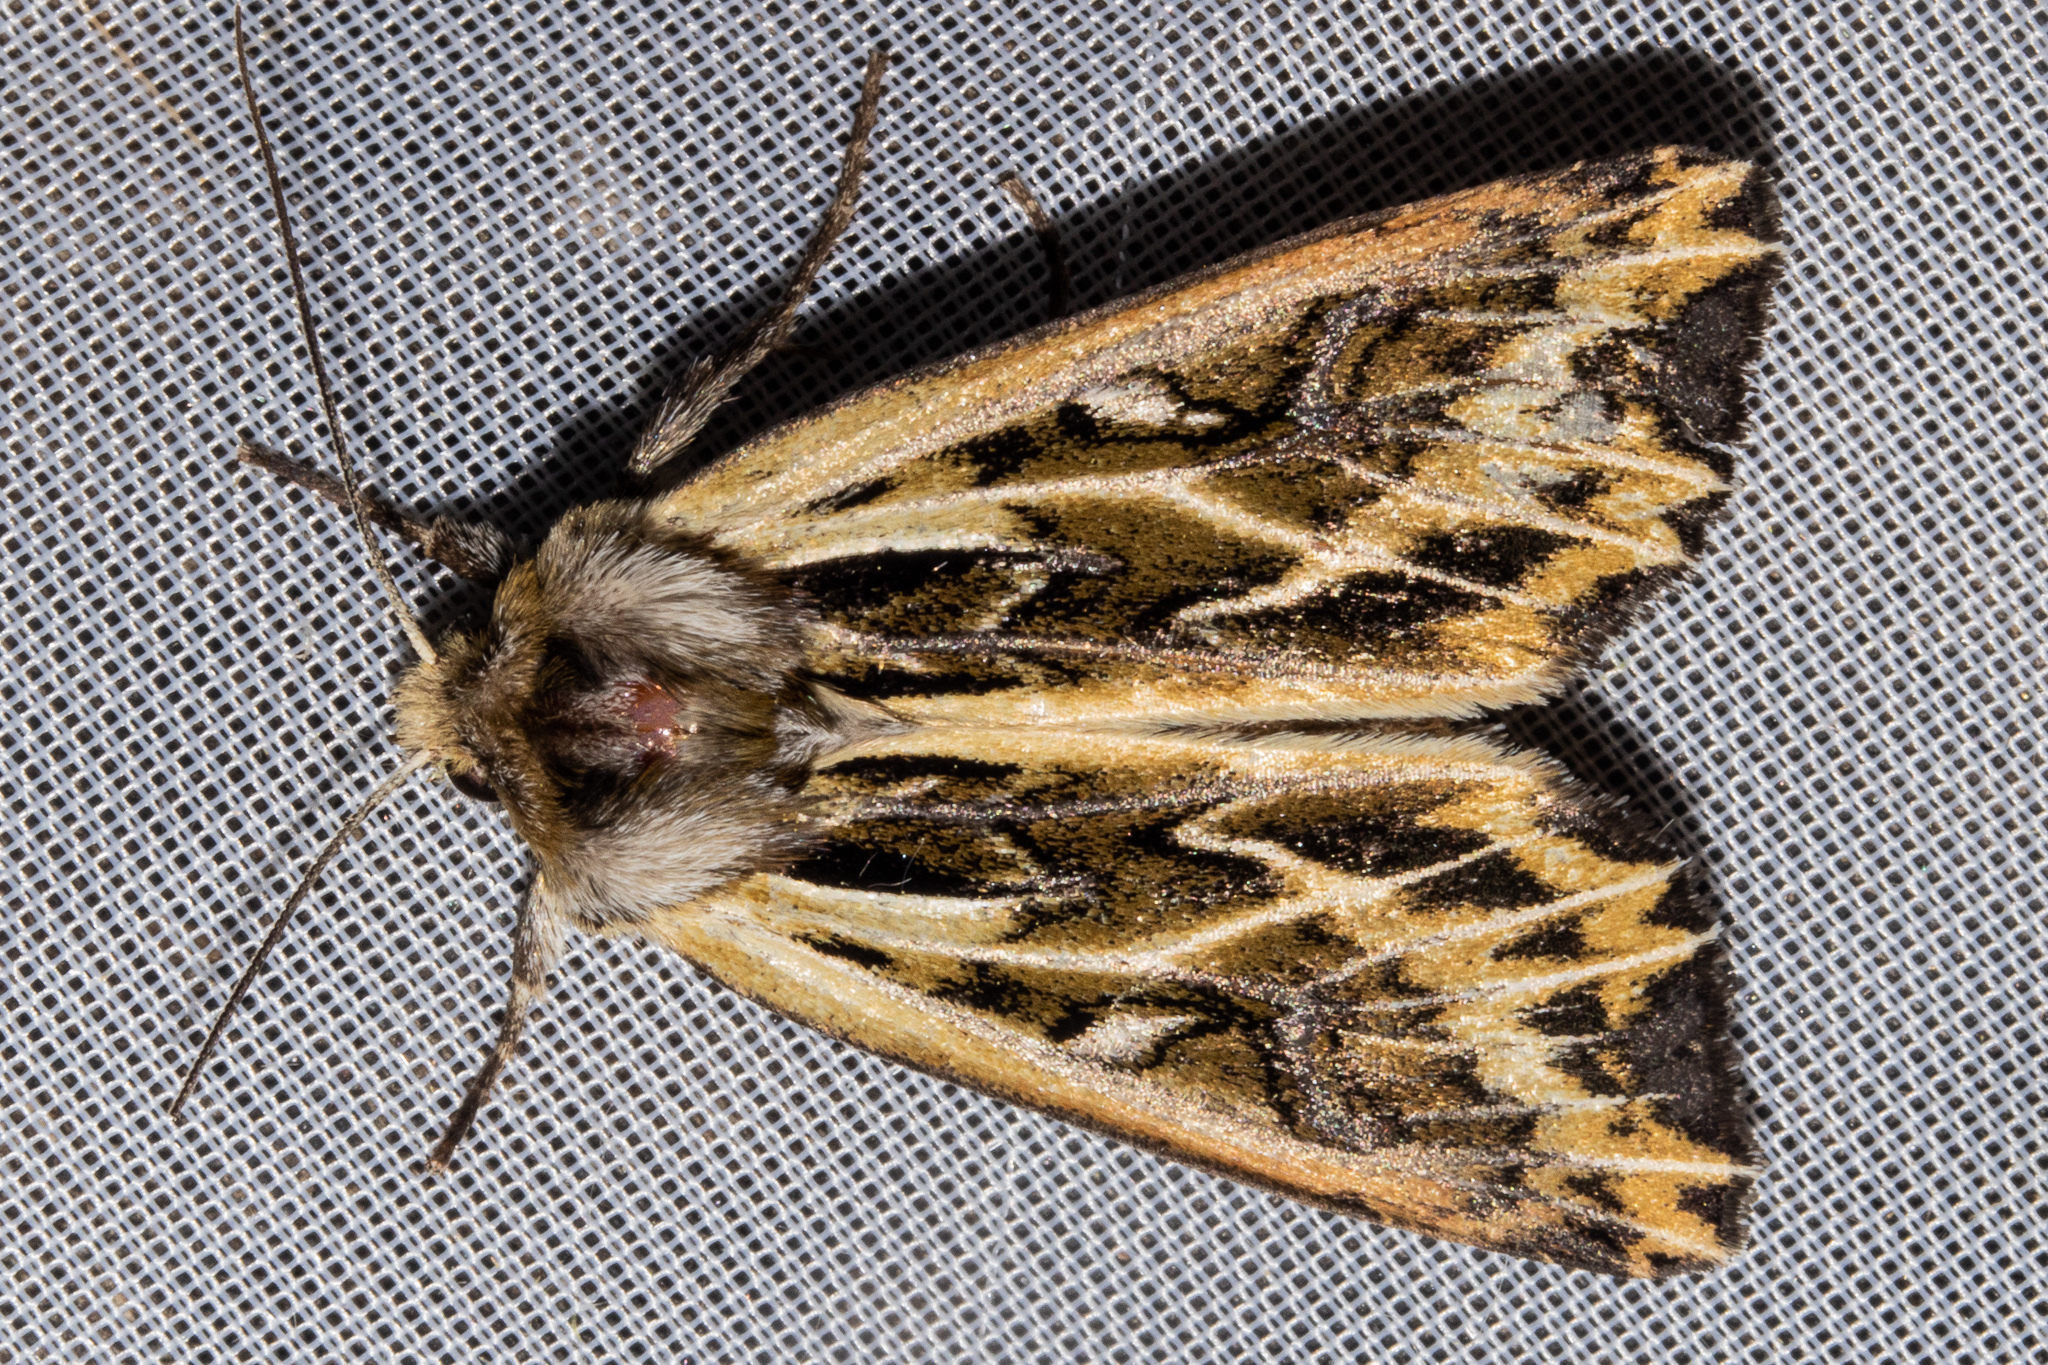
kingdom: Animalia
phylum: Arthropoda
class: Insecta
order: Lepidoptera
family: Noctuidae
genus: Ichneutica
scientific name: Ichneutica
